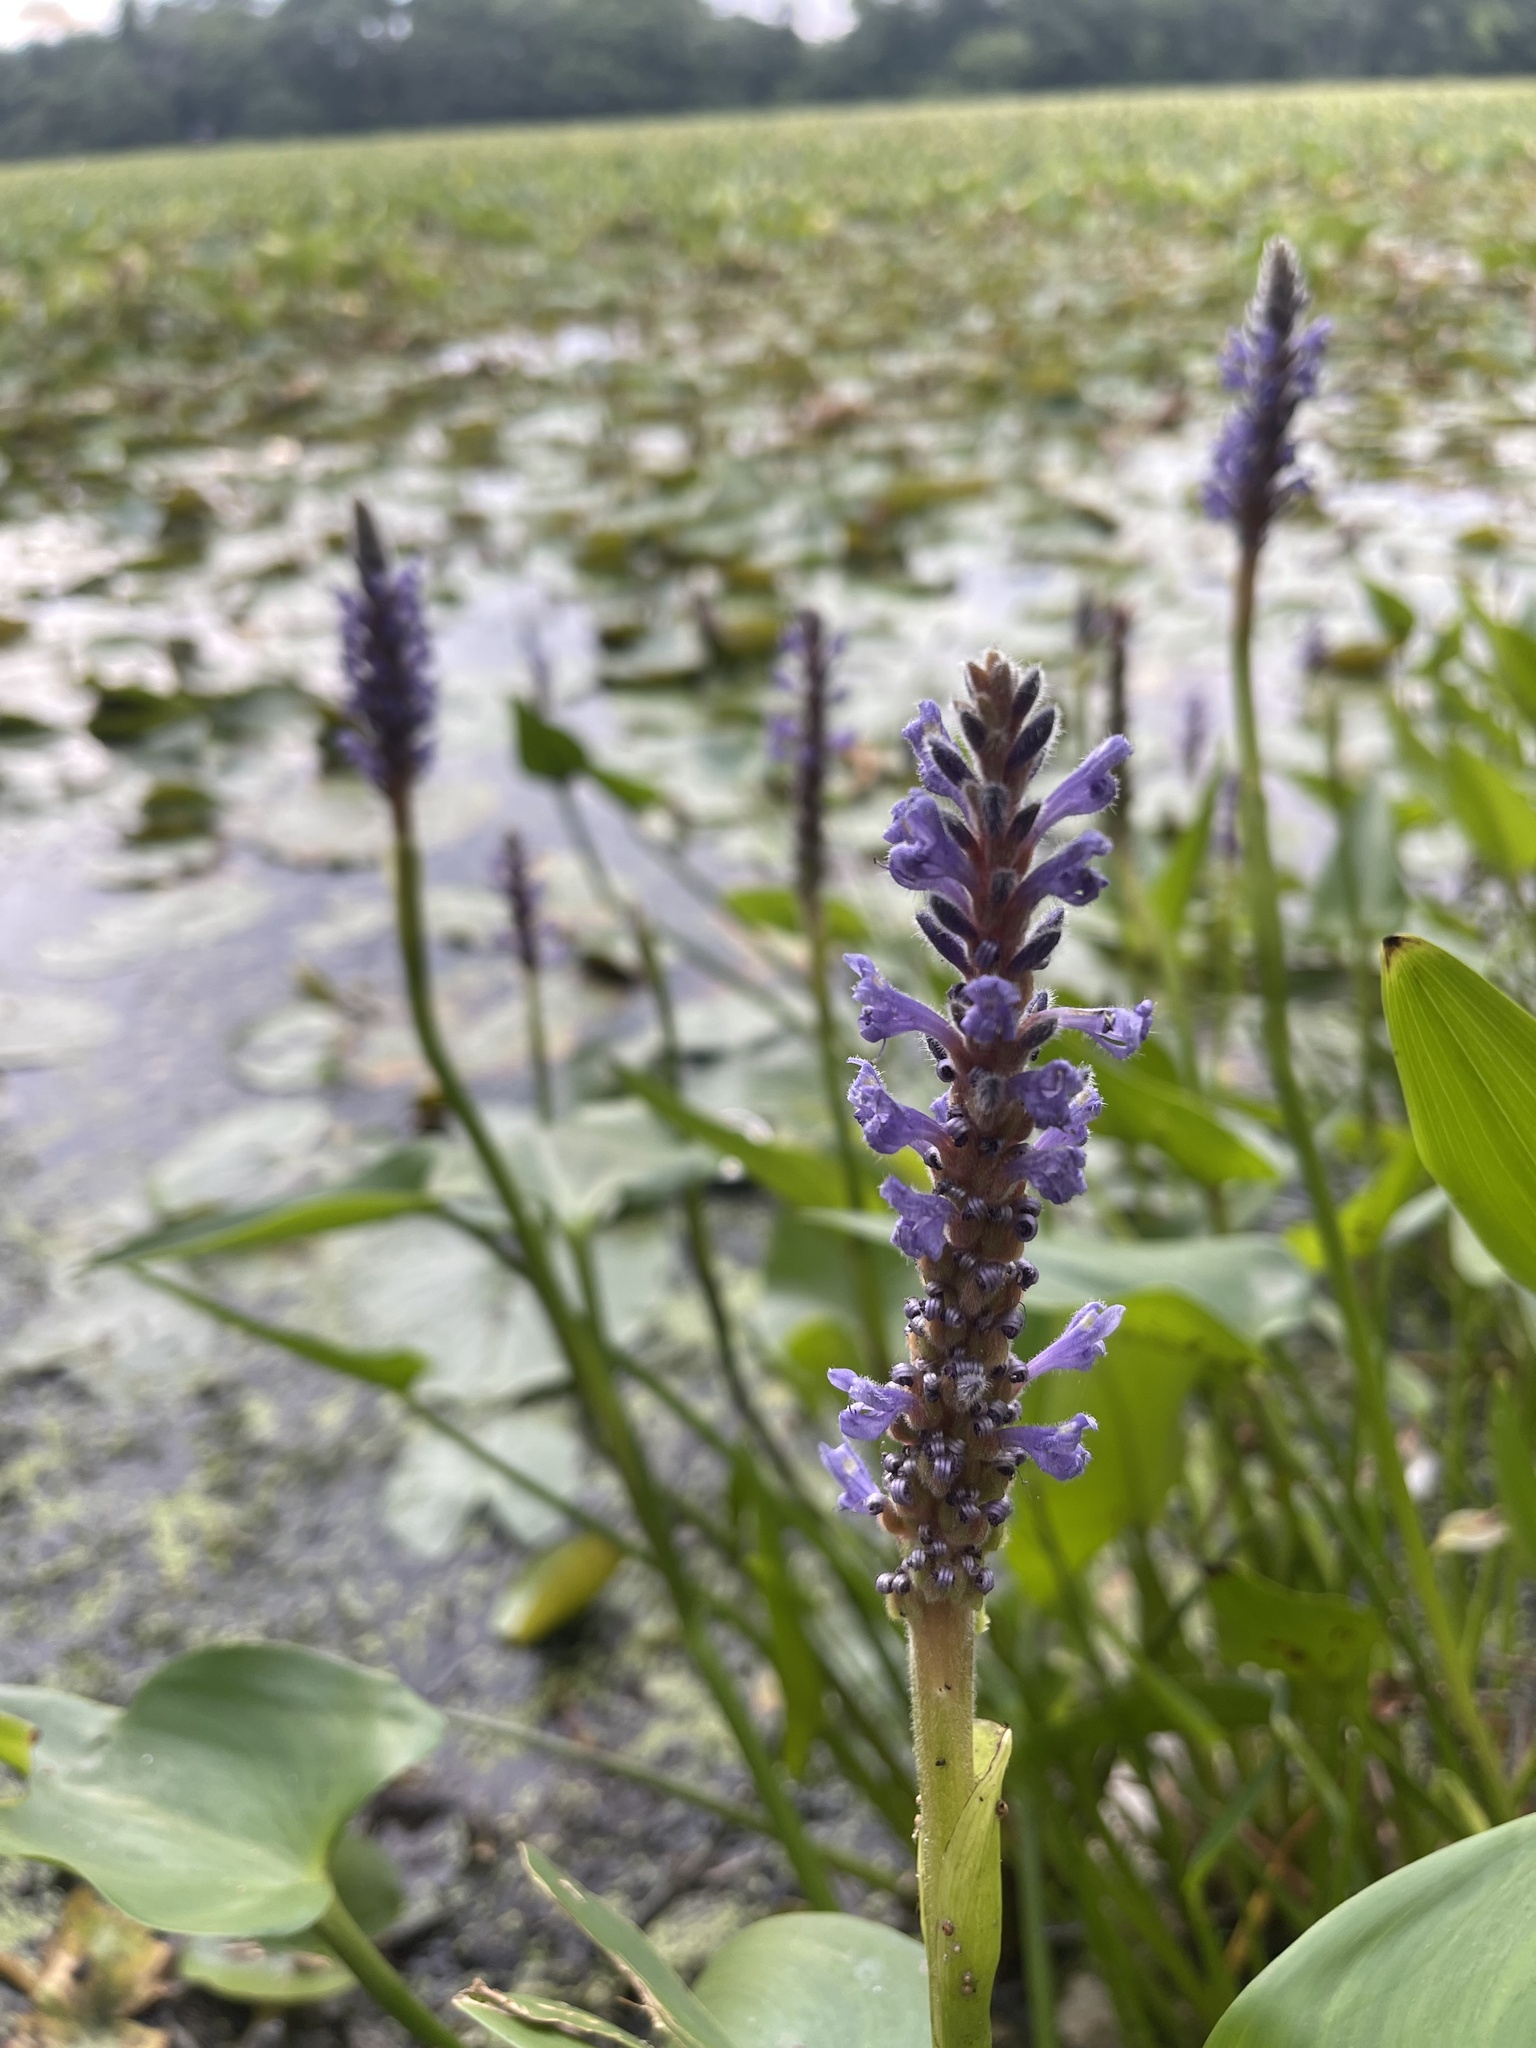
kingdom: Plantae
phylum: Tracheophyta
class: Liliopsida
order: Commelinales
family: Pontederiaceae
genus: Pontederia
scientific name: Pontederia cordata
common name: Pickerelweed
